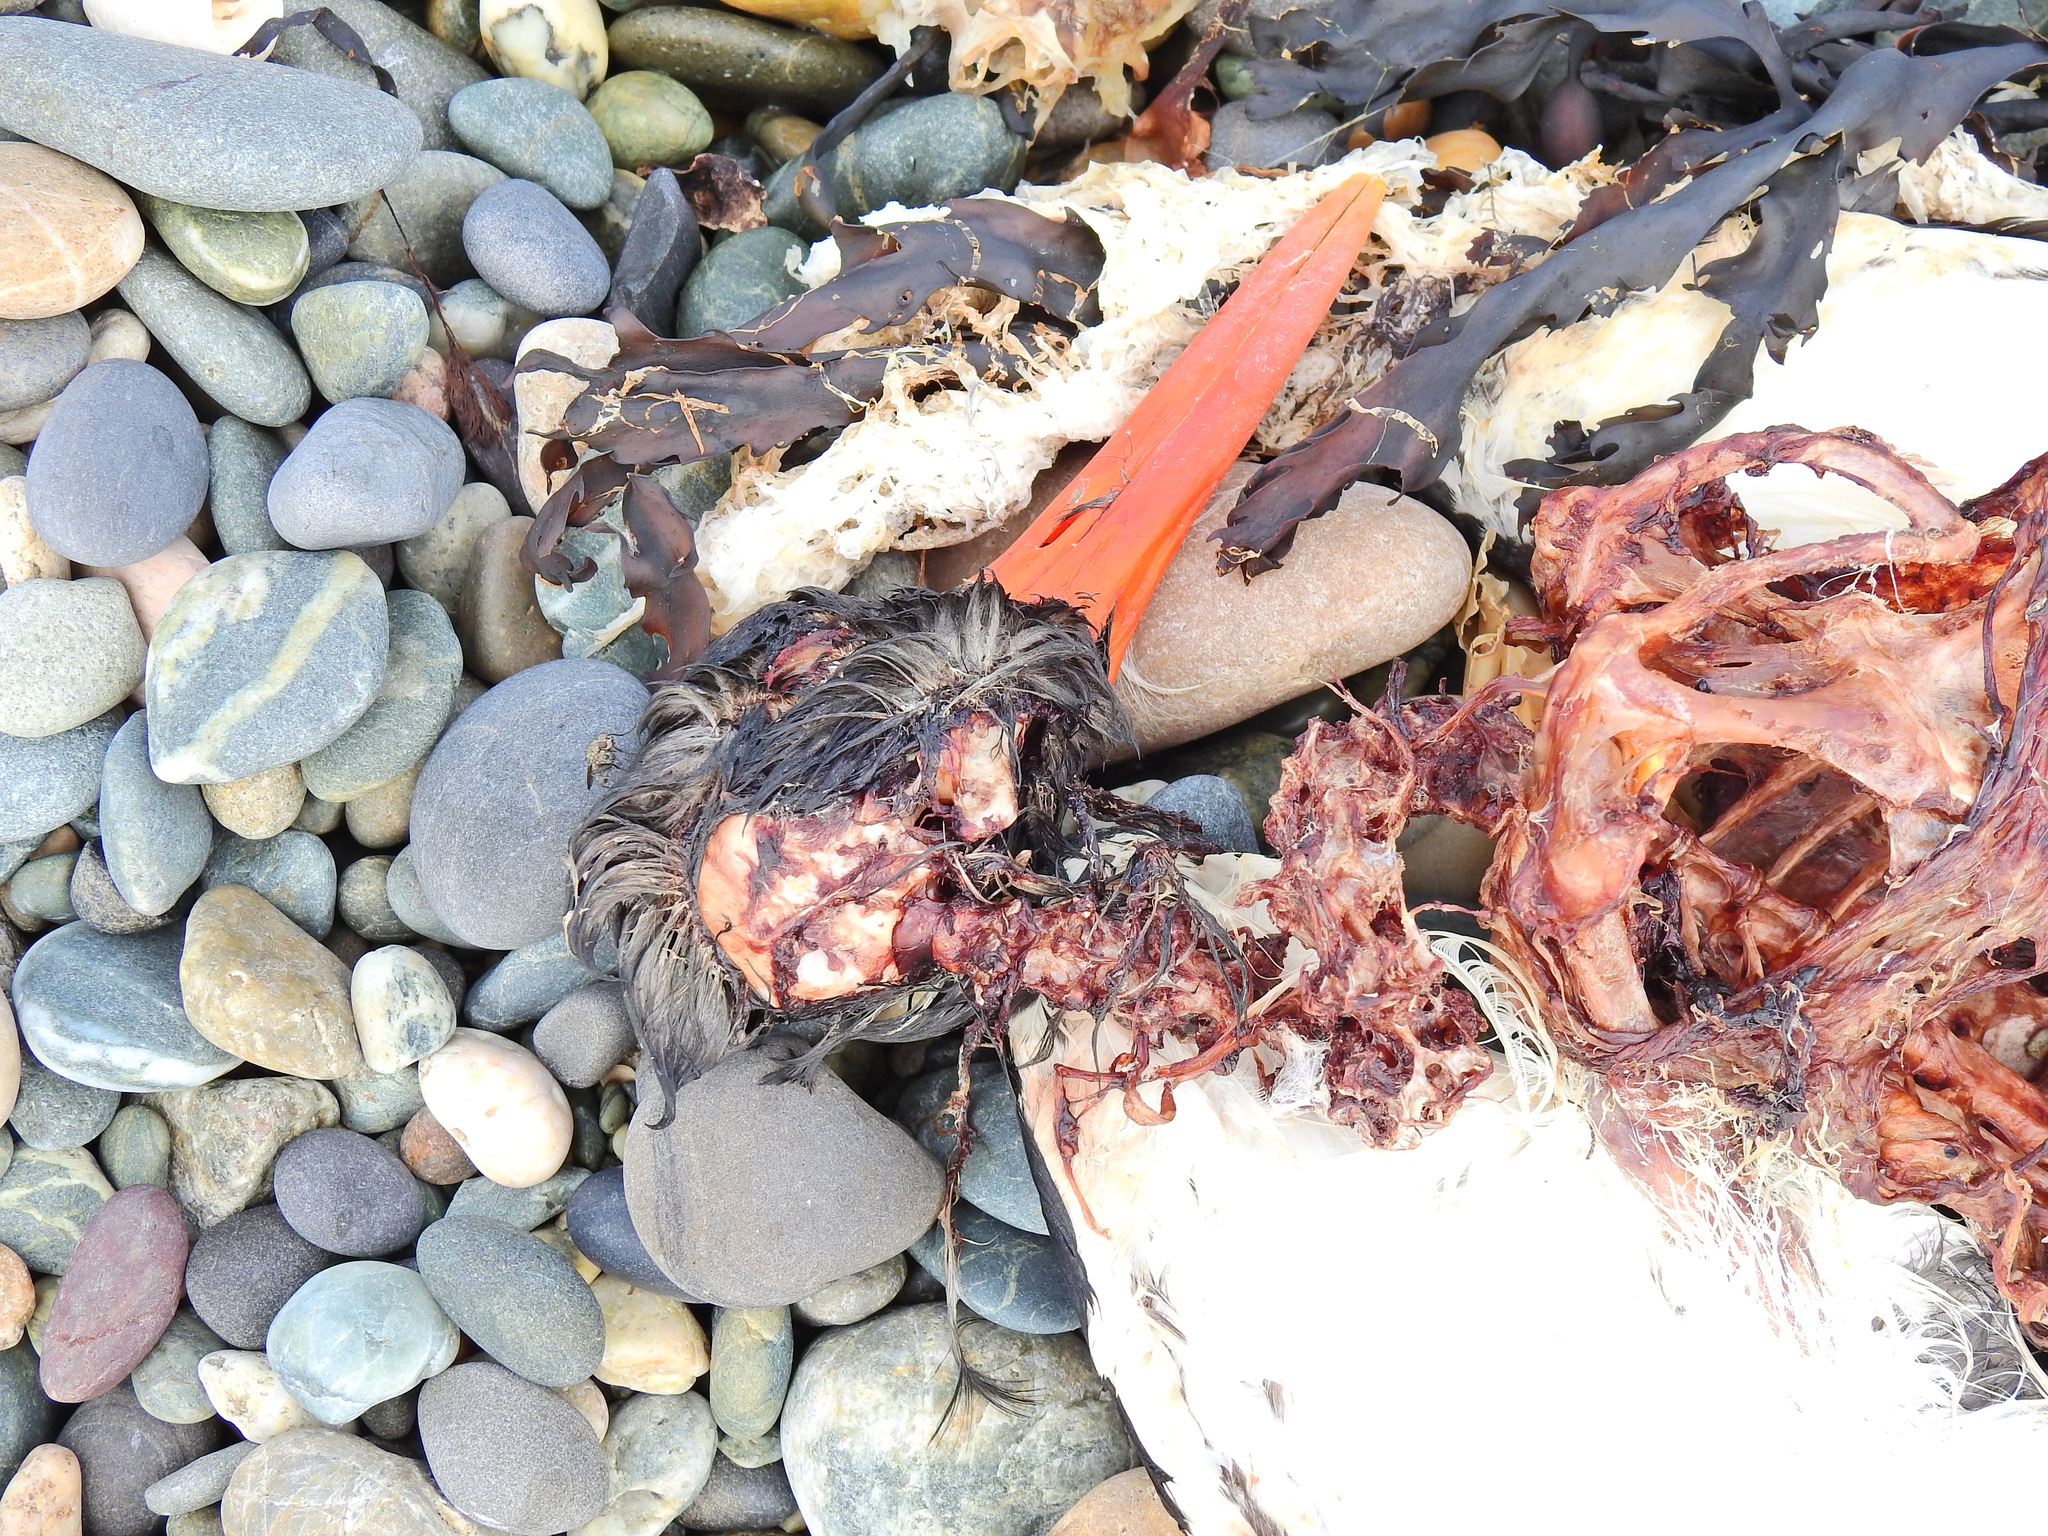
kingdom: Animalia
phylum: Chordata
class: Aves
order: Charadriiformes
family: Haematopodidae
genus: Haematopus
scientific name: Haematopus ostralegus
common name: Eurasian oystercatcher
